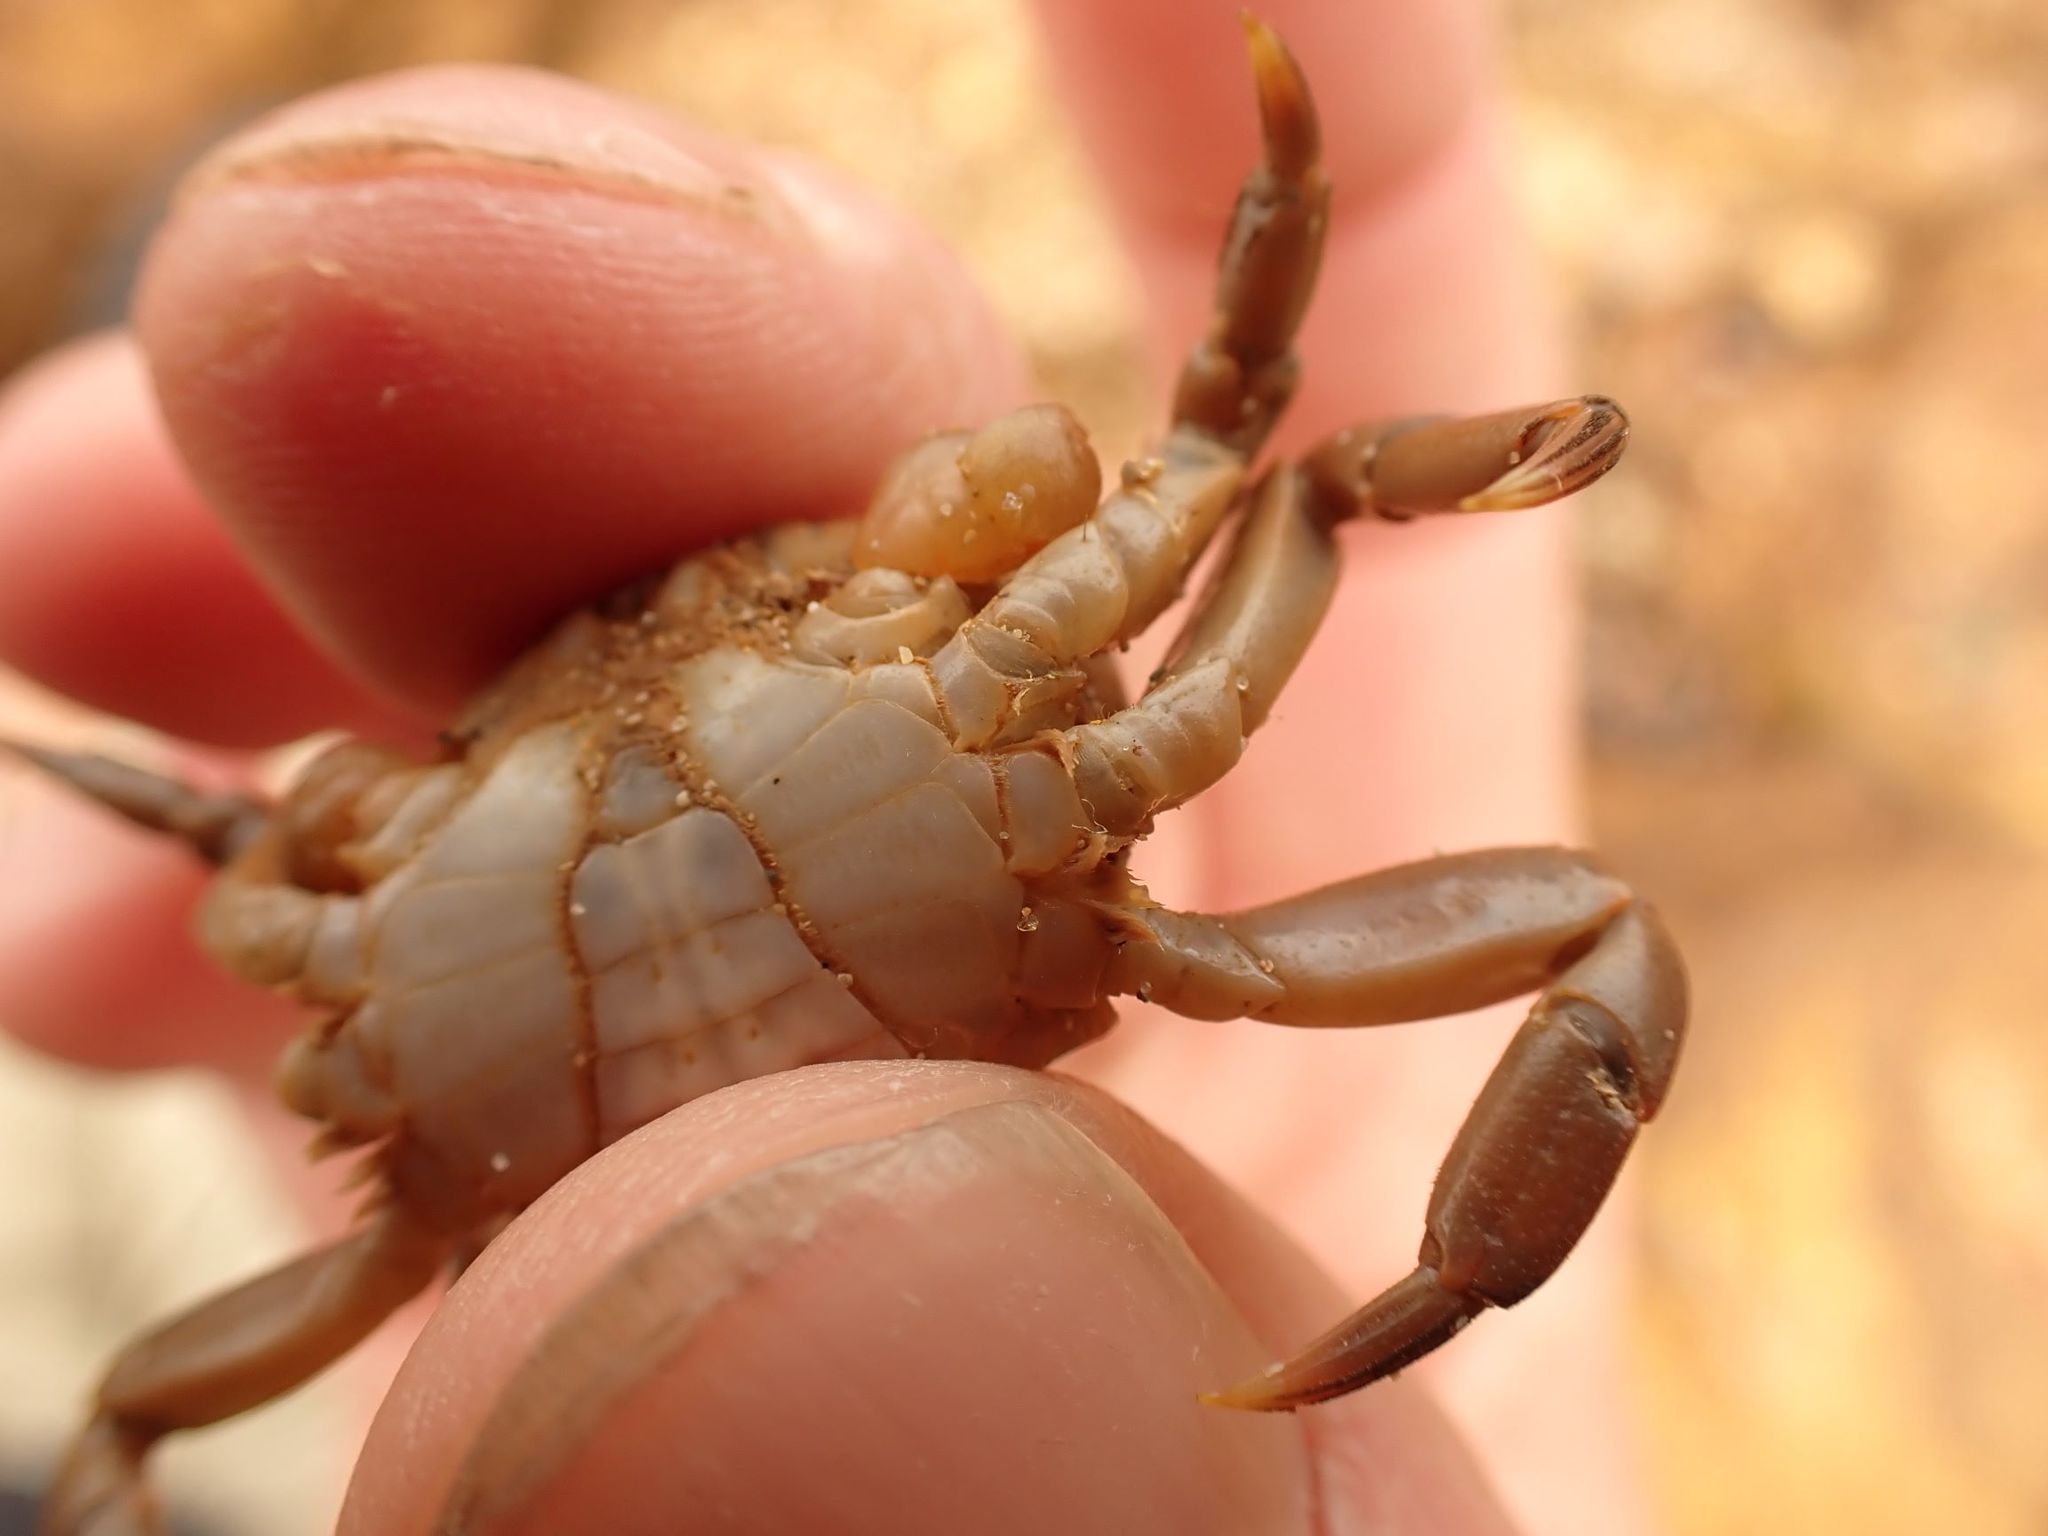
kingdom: Animalia
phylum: Arthropoda
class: Malacostraca
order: Decapoda
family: Varunidae
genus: Cyclograpsus
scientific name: Cyclograpsus audouinii
